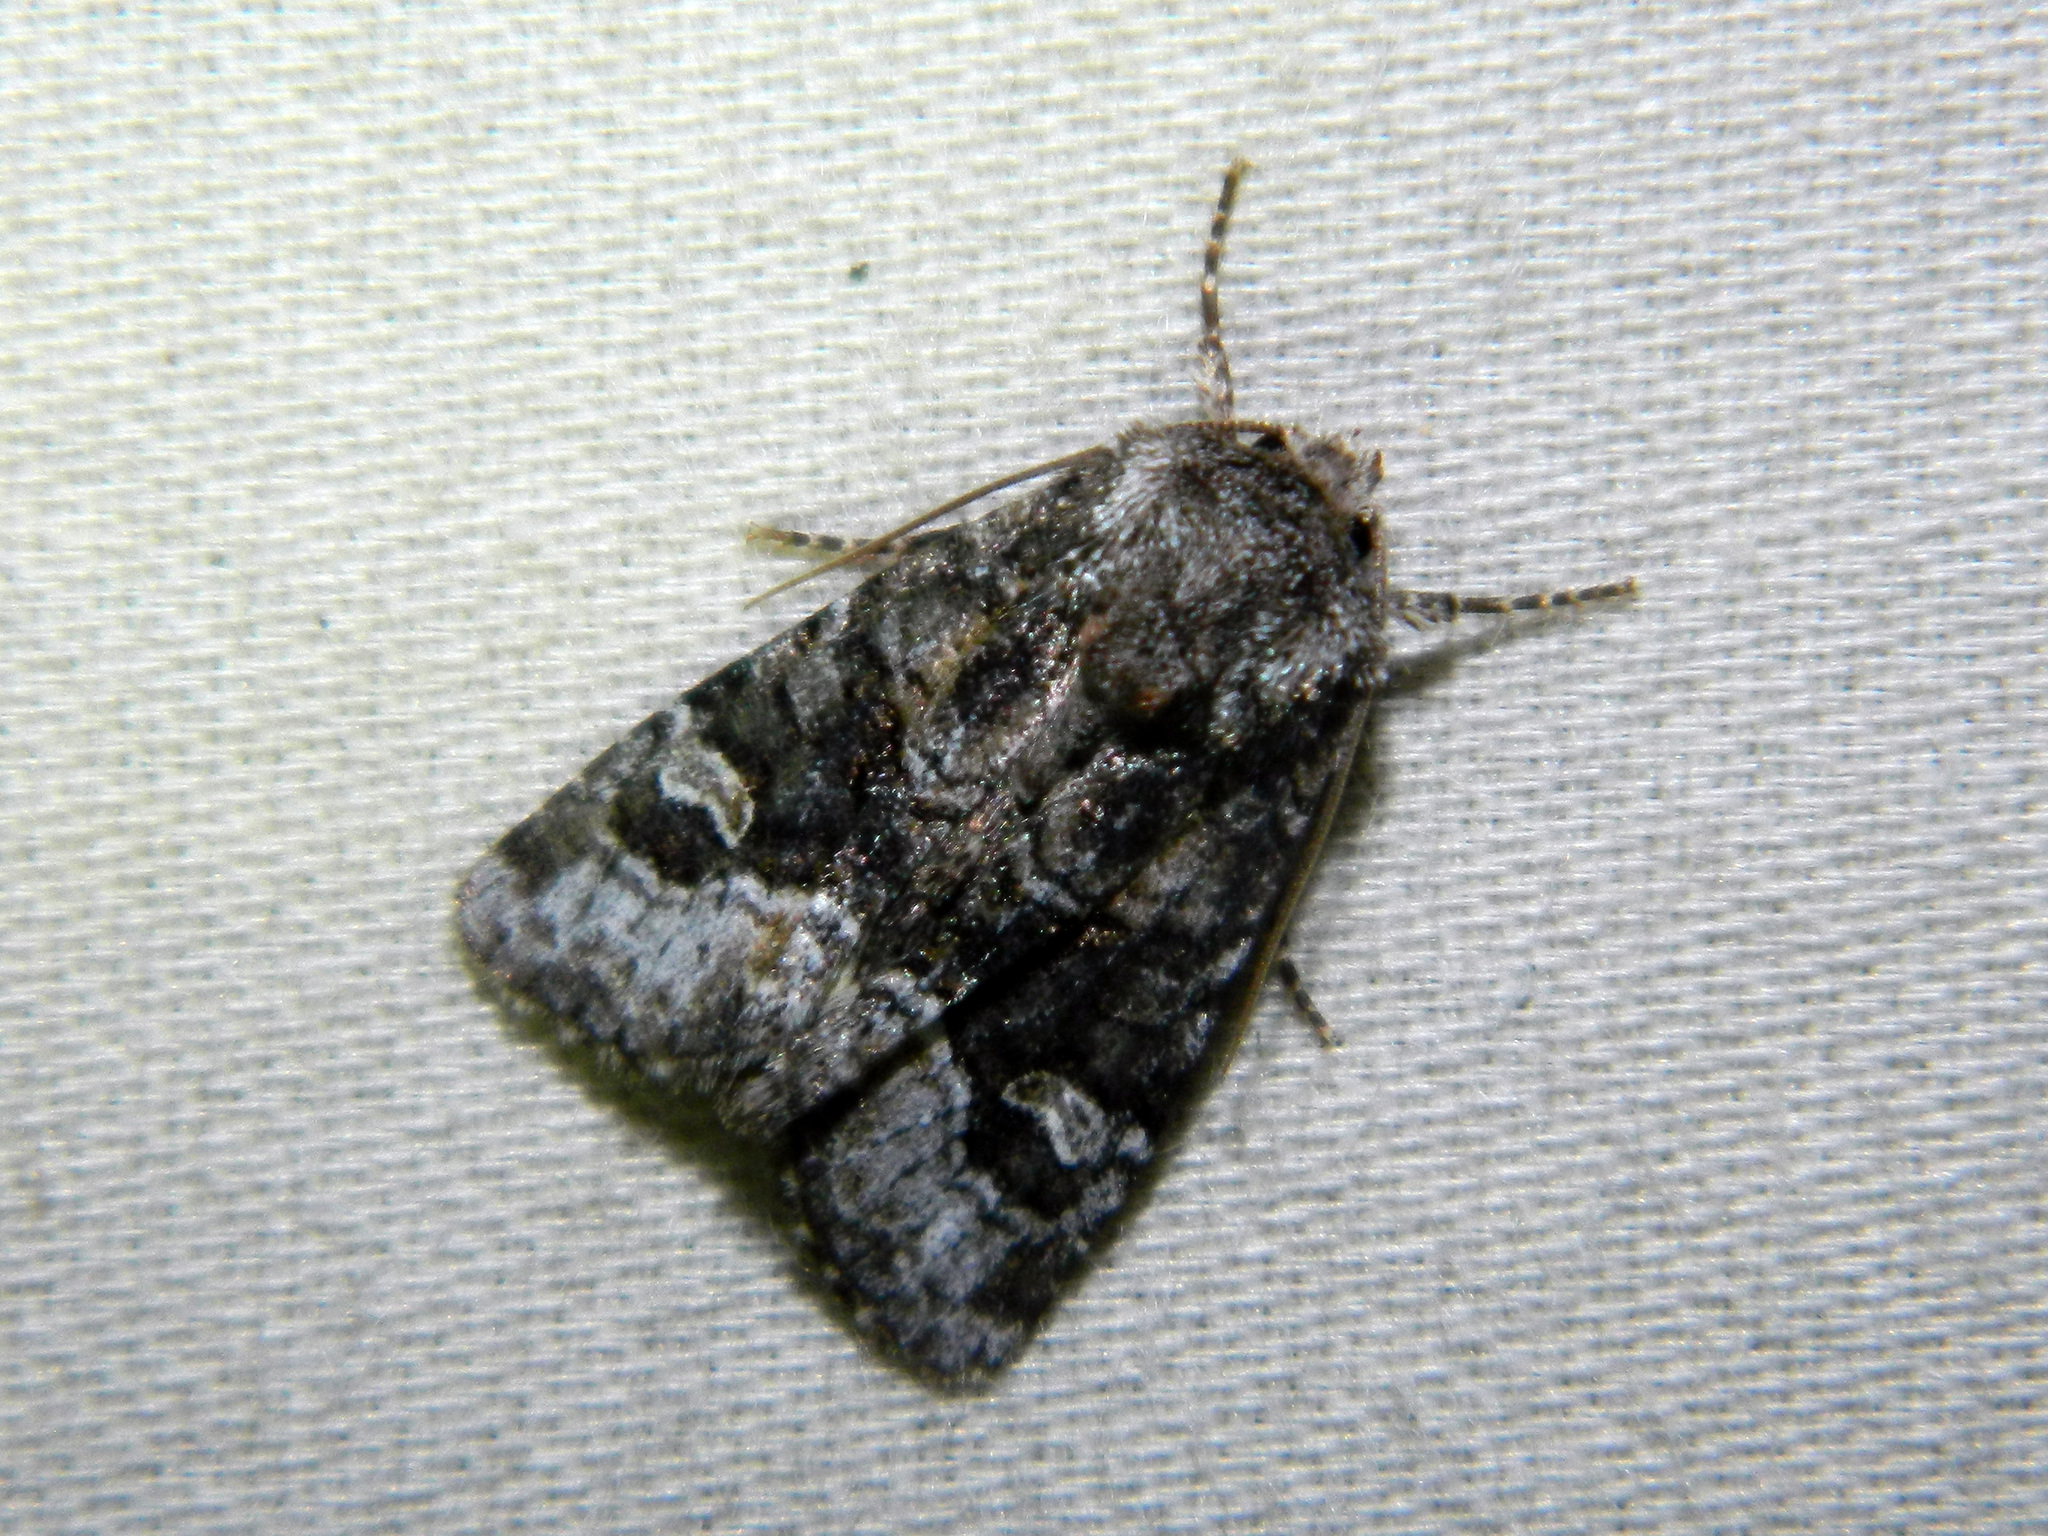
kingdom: Animalia
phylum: Arthropoda
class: Insecta
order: Lepidoptera
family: Noctuidae
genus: Lacinipolia
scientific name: Lacinipolia olivacea
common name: Olive arches moth
